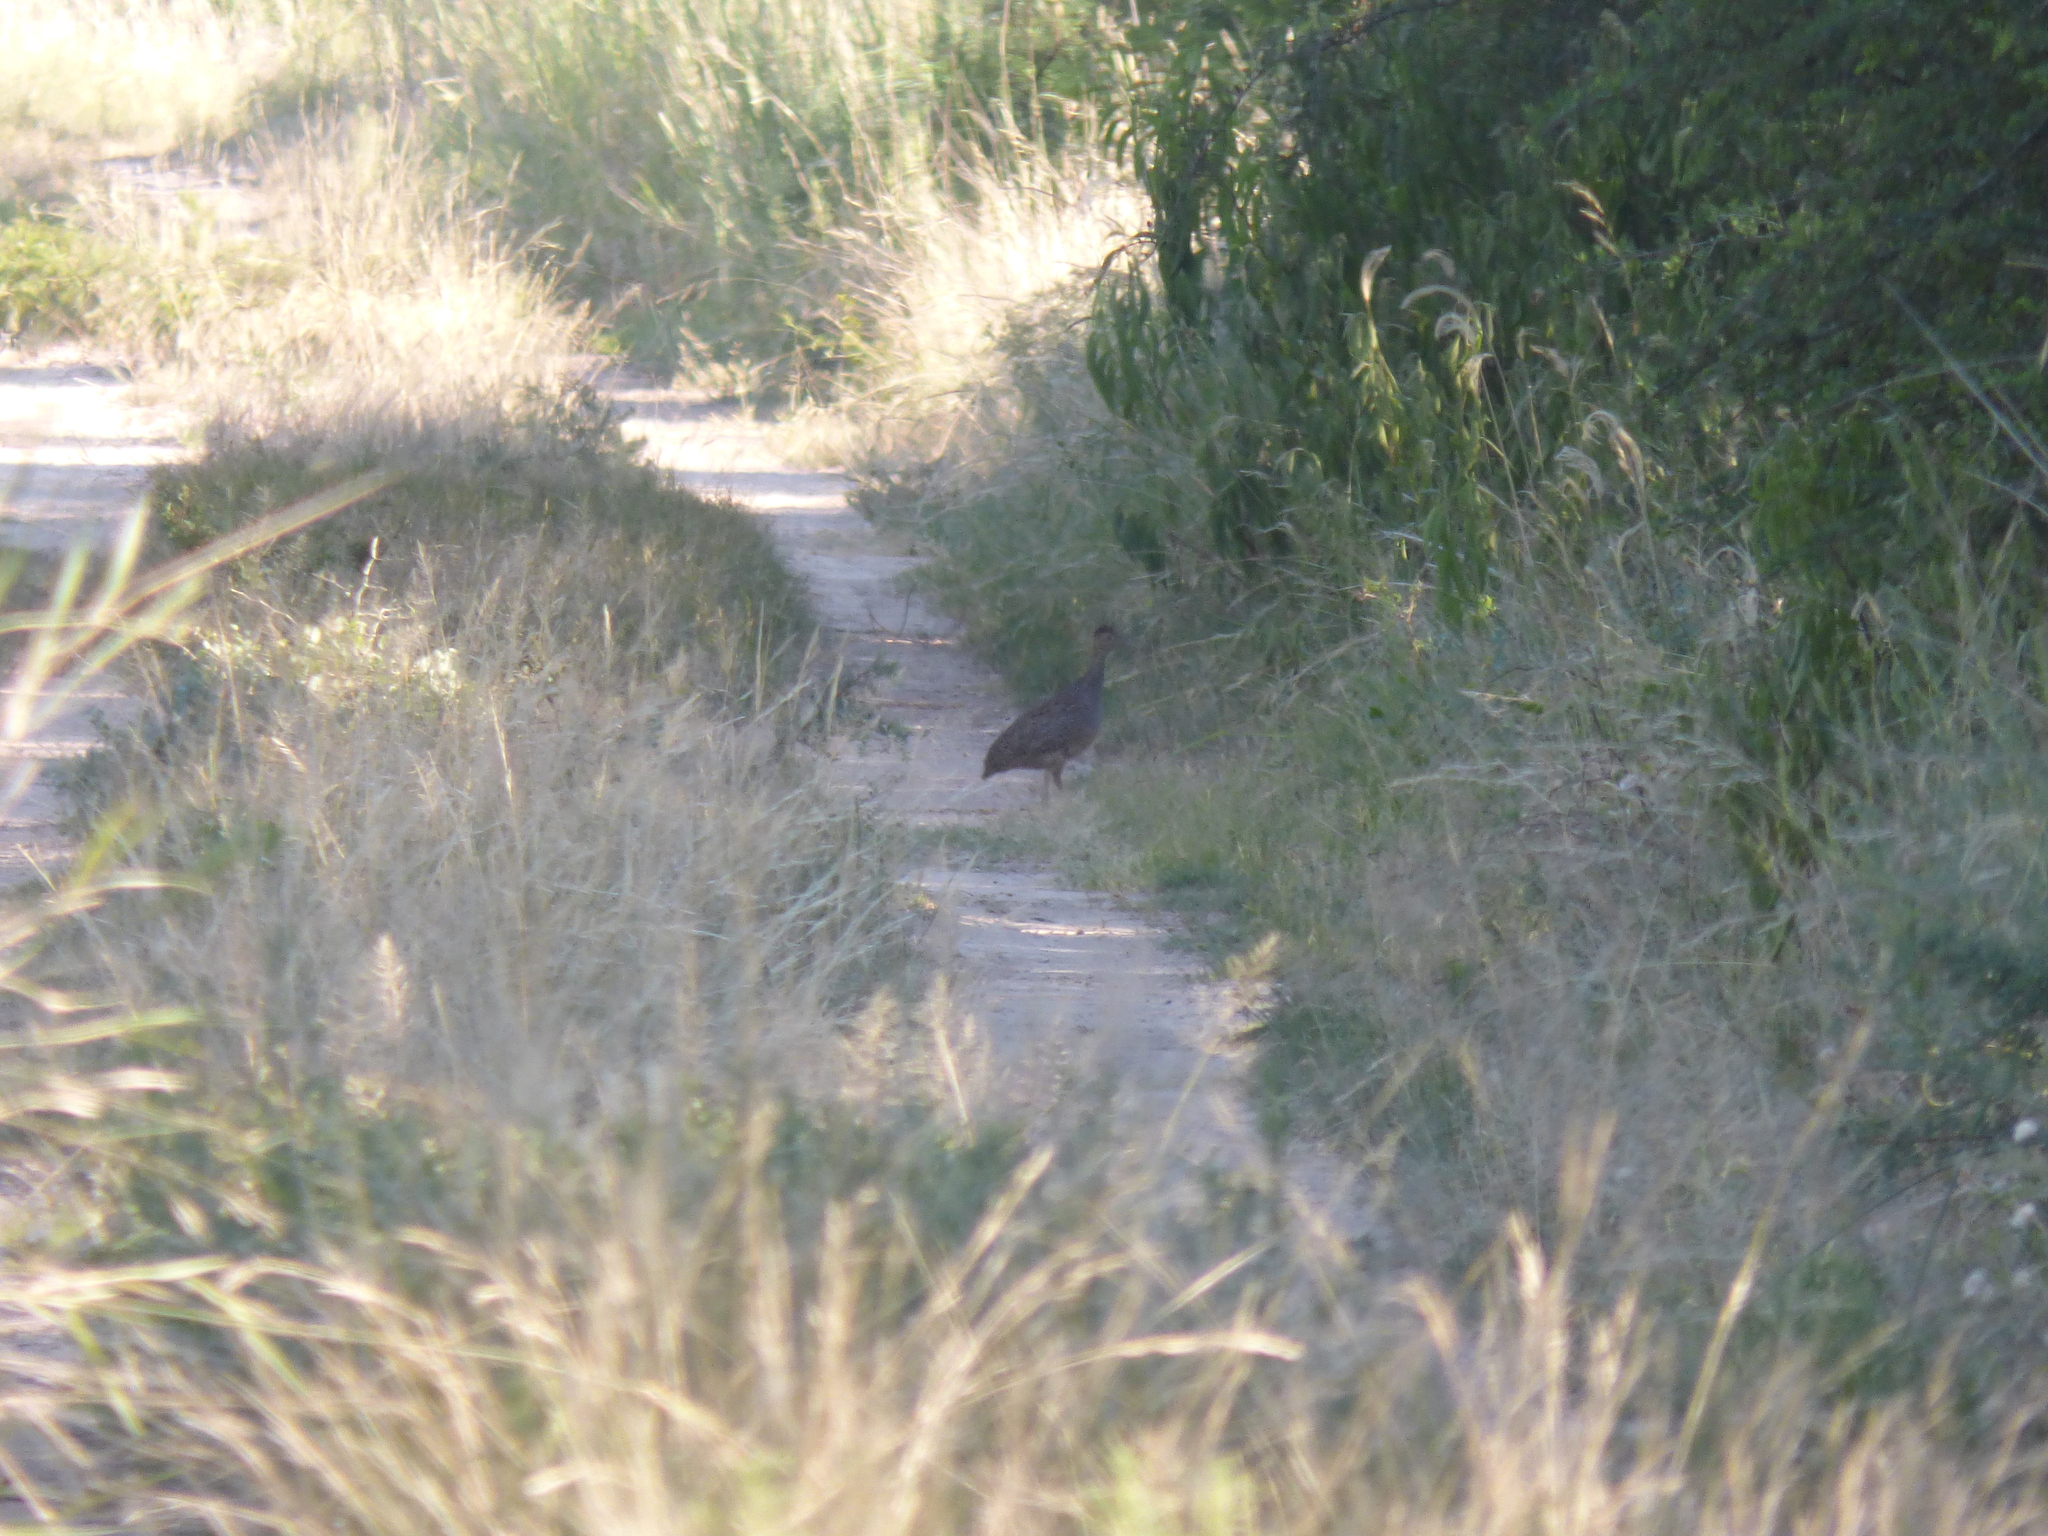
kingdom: Animalia
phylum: Chordata
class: Aves
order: Tinamiformes
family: Tinamidae
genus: Nothoprocta
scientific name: Nothoprocta cinerascens
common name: Brushland tinamou
